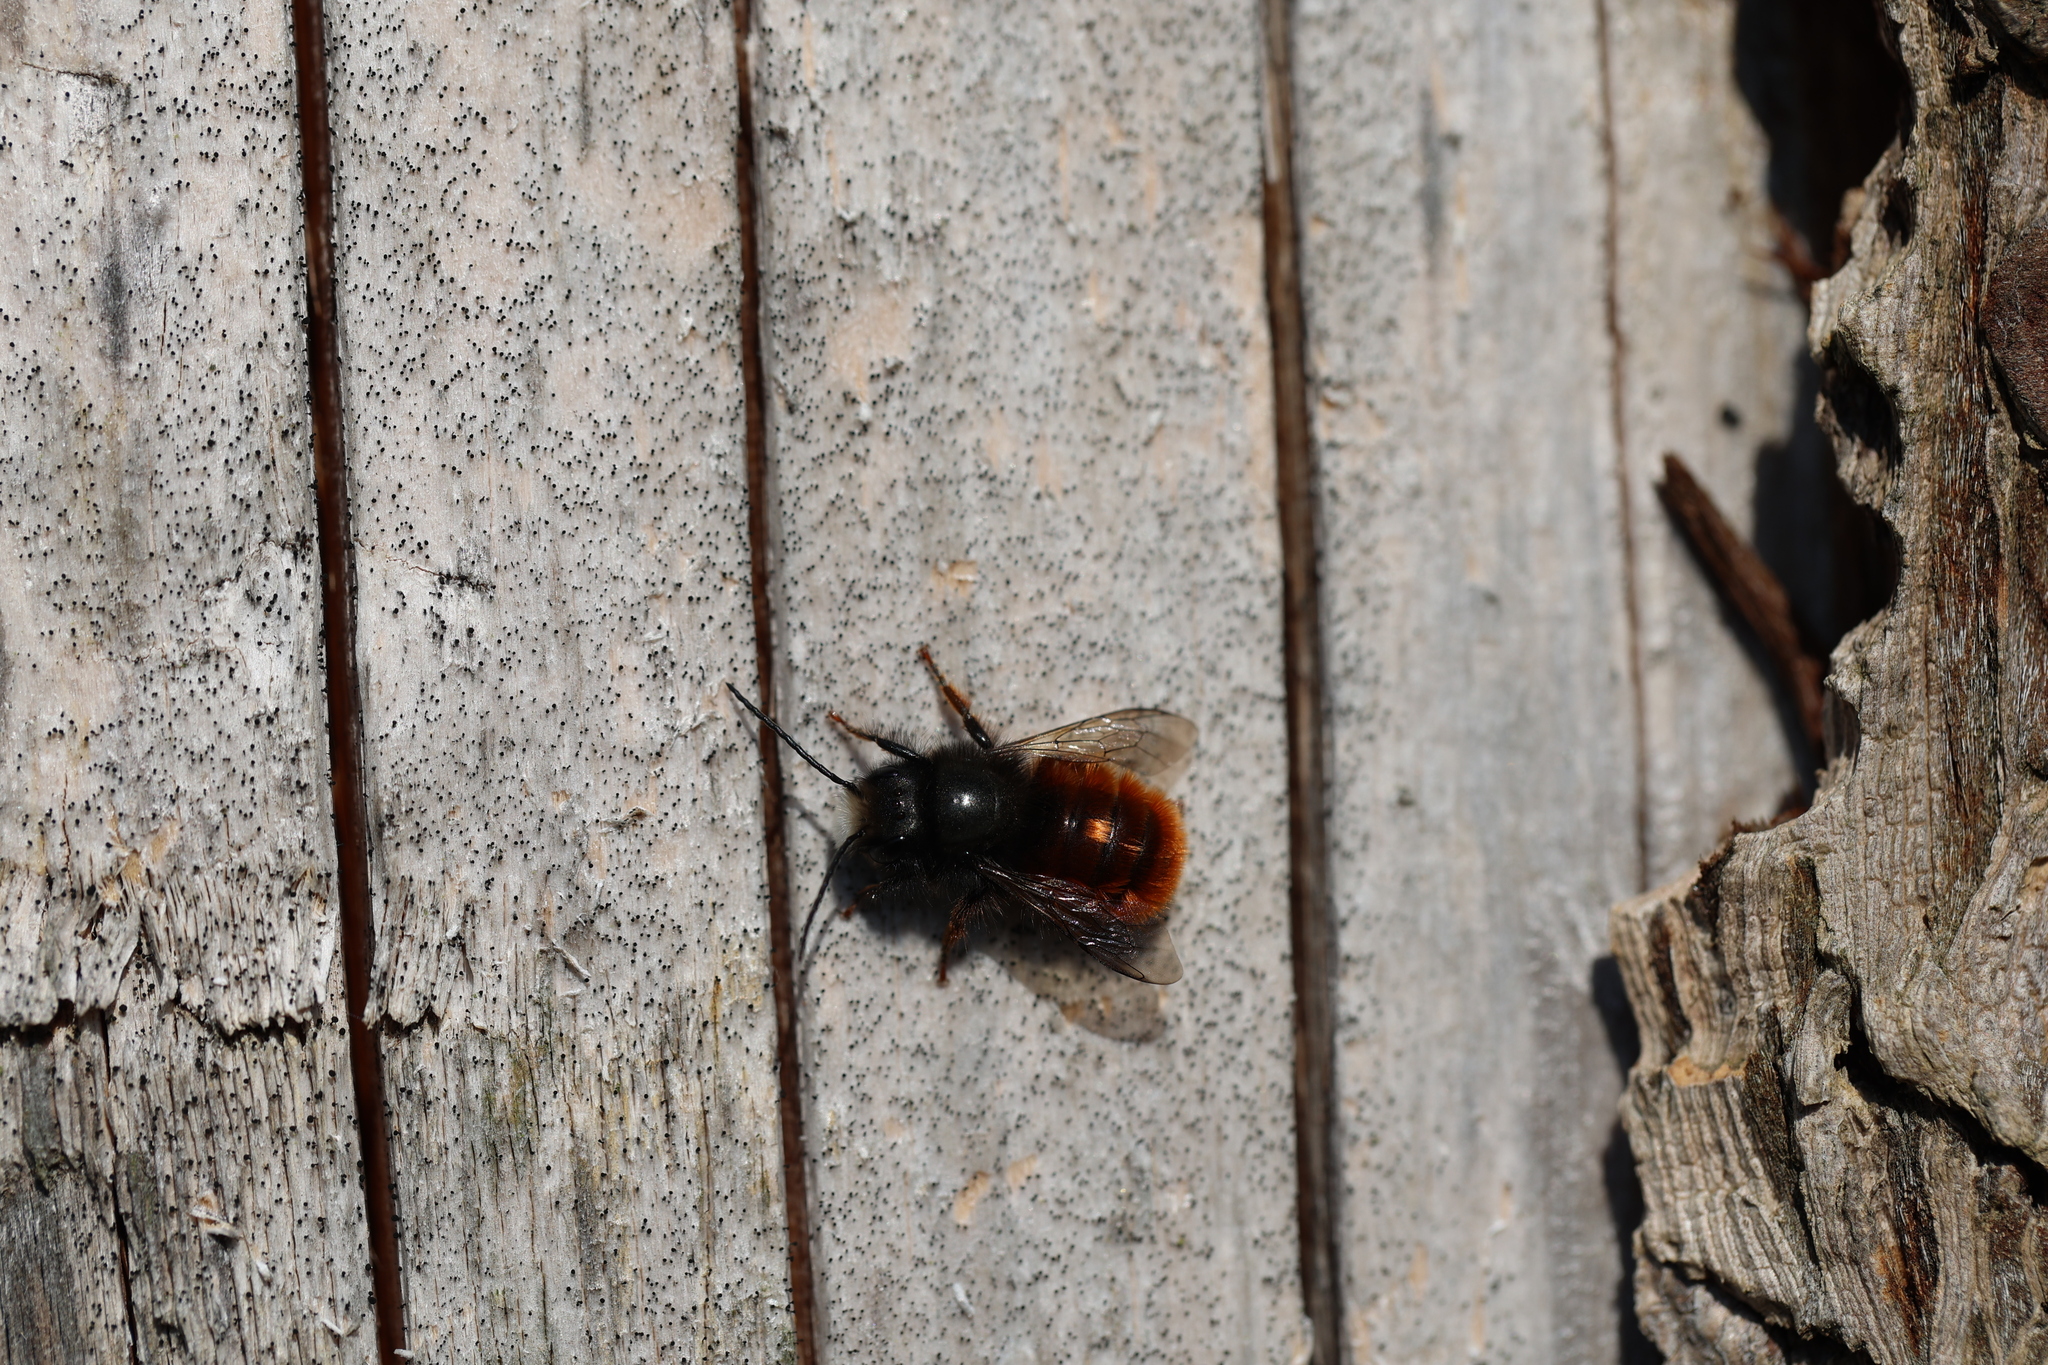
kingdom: Animalia
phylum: Arthropoda
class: Insecta
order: Hymenoptera
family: Megachilidae
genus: Osmia
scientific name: Osmia cornuta
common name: Mason bee
